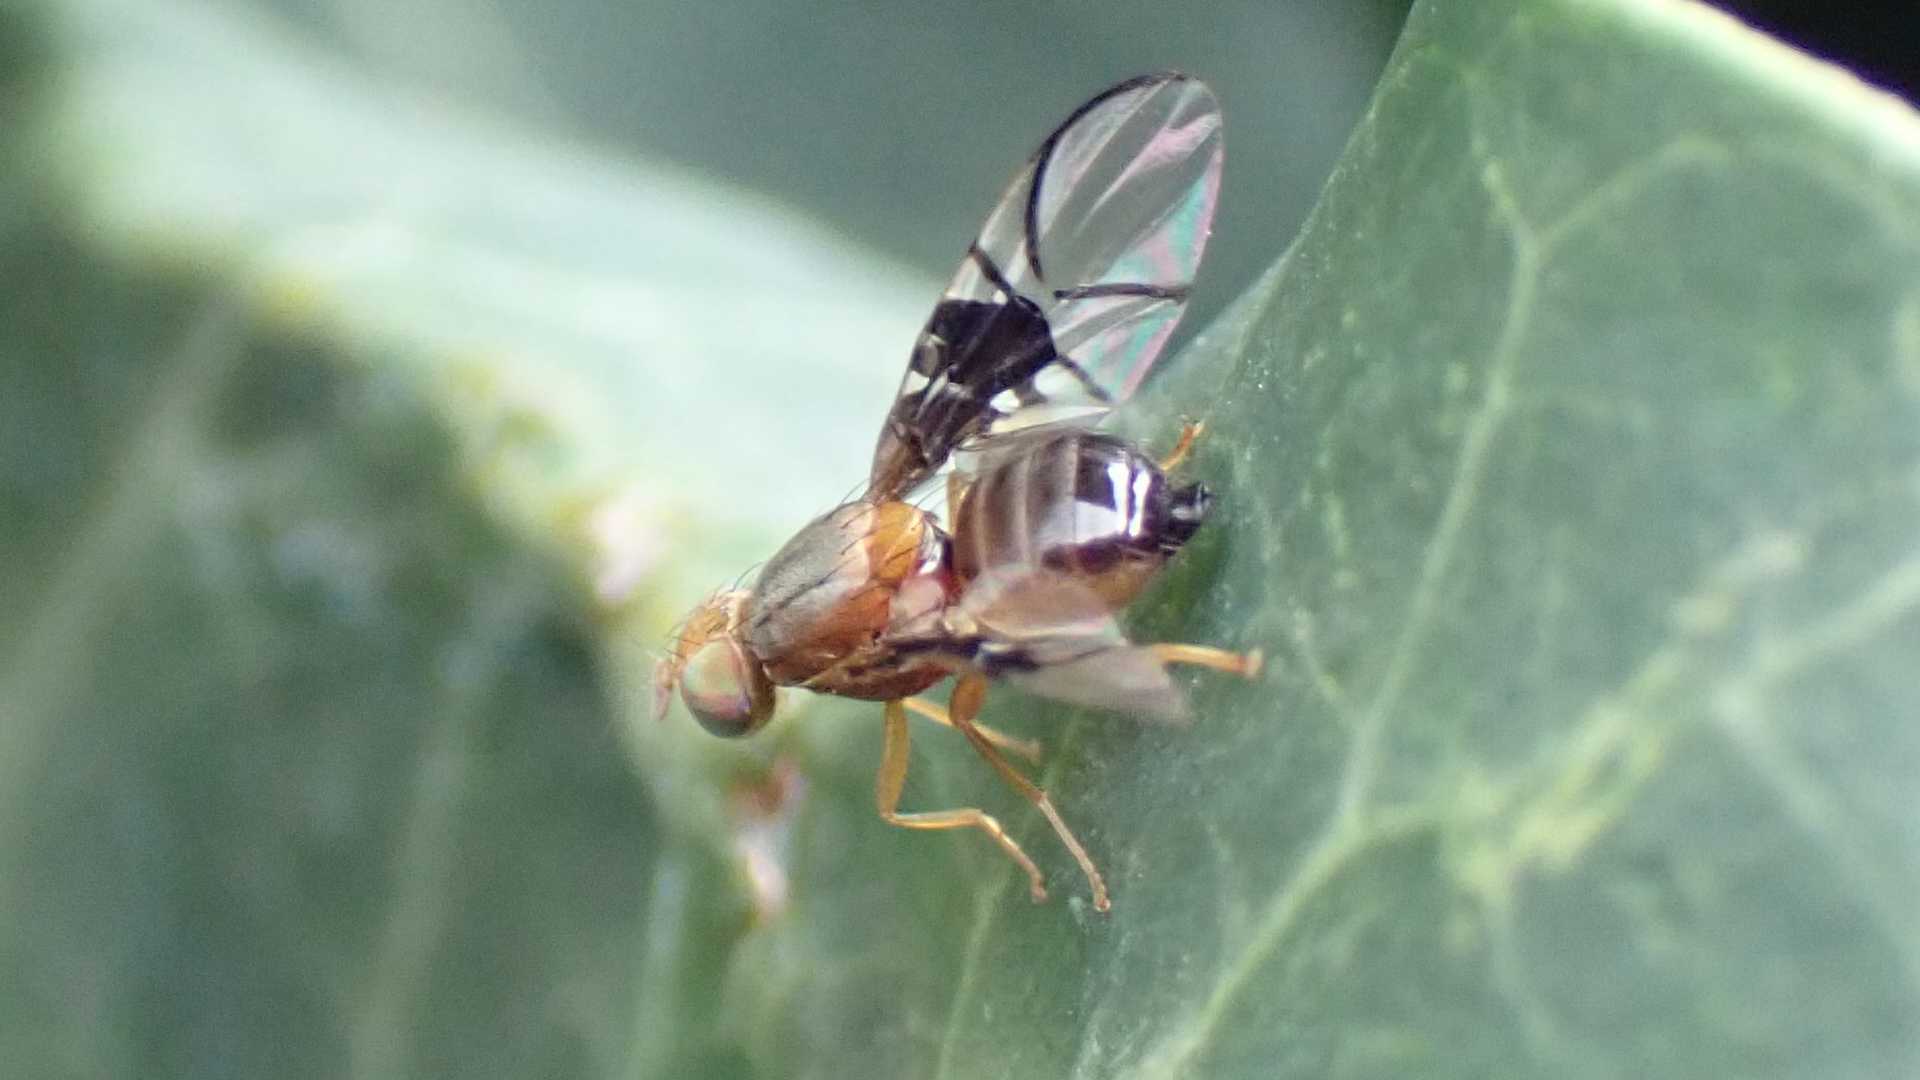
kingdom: Animalia
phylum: Arthropoda
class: Insecta
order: Diptera
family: Tephritidae
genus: Anomoia
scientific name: Anomoia purmunda
